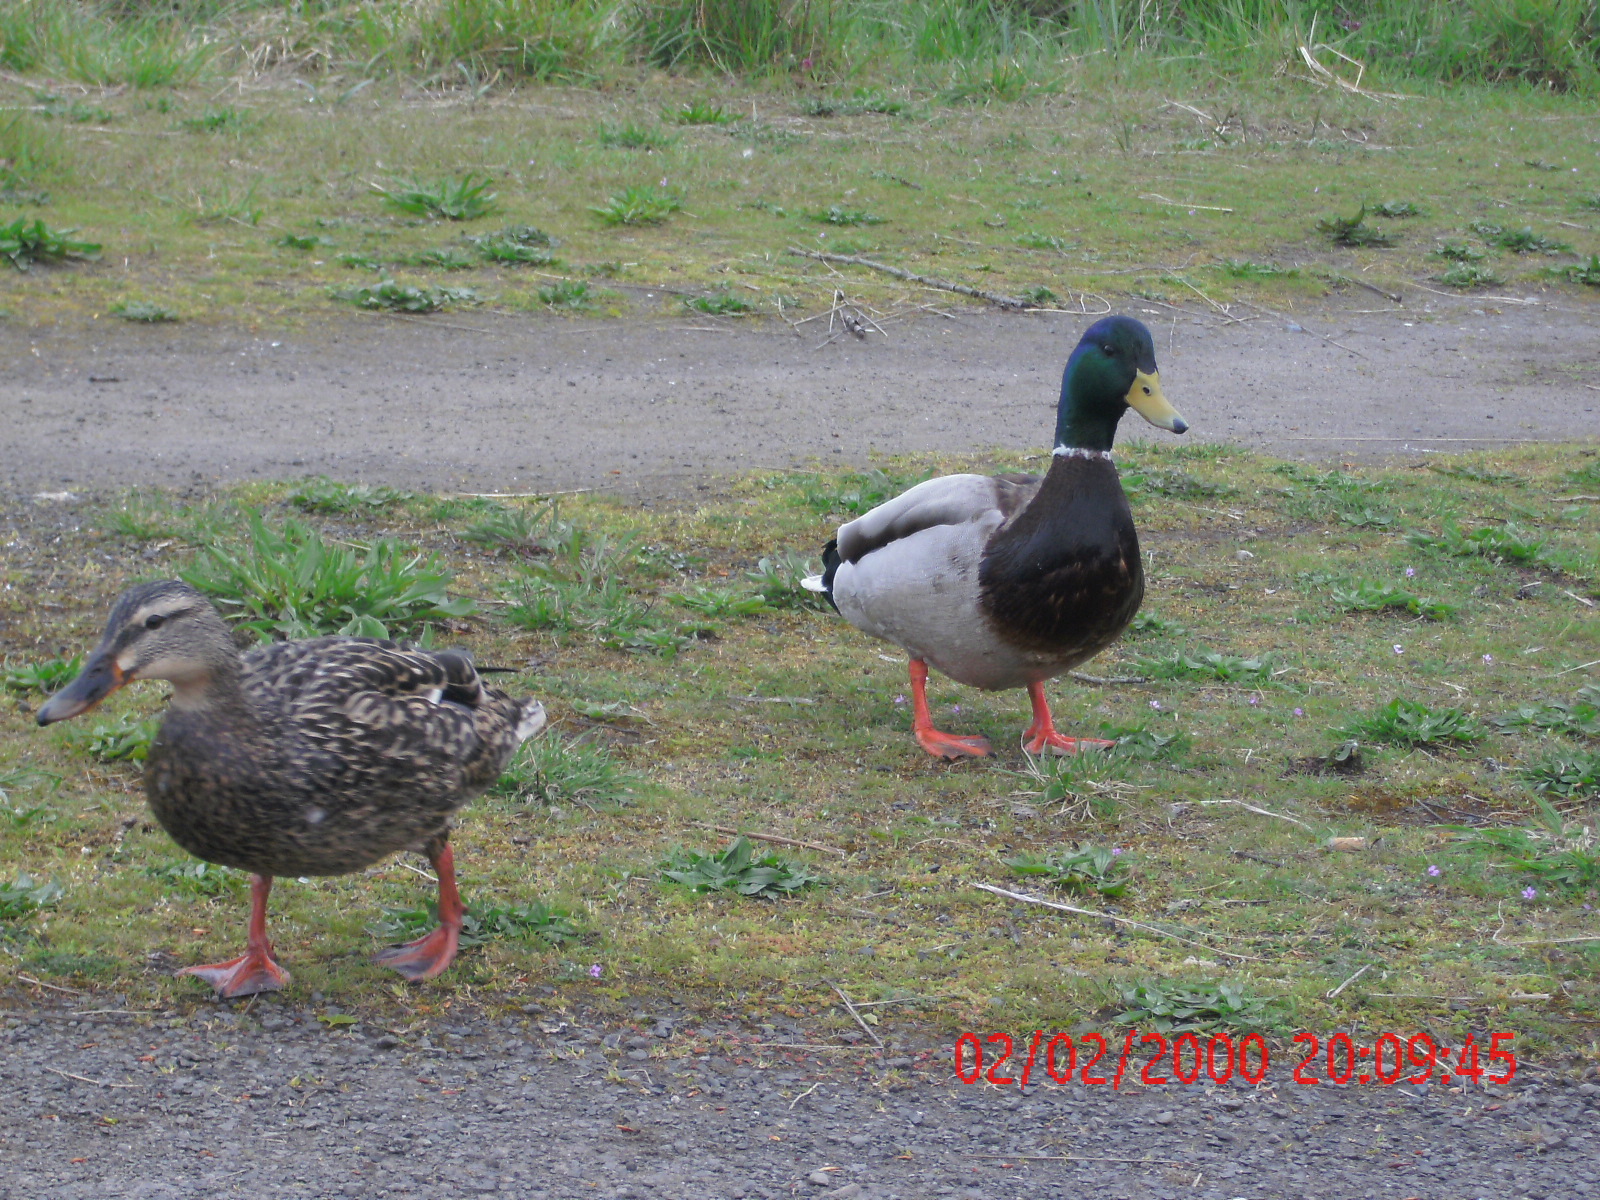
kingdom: Animalia
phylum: Chordata
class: Aves
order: Anseriformes
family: Anatidae
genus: Anas
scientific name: Anas platyrhynchos
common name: Mallard
